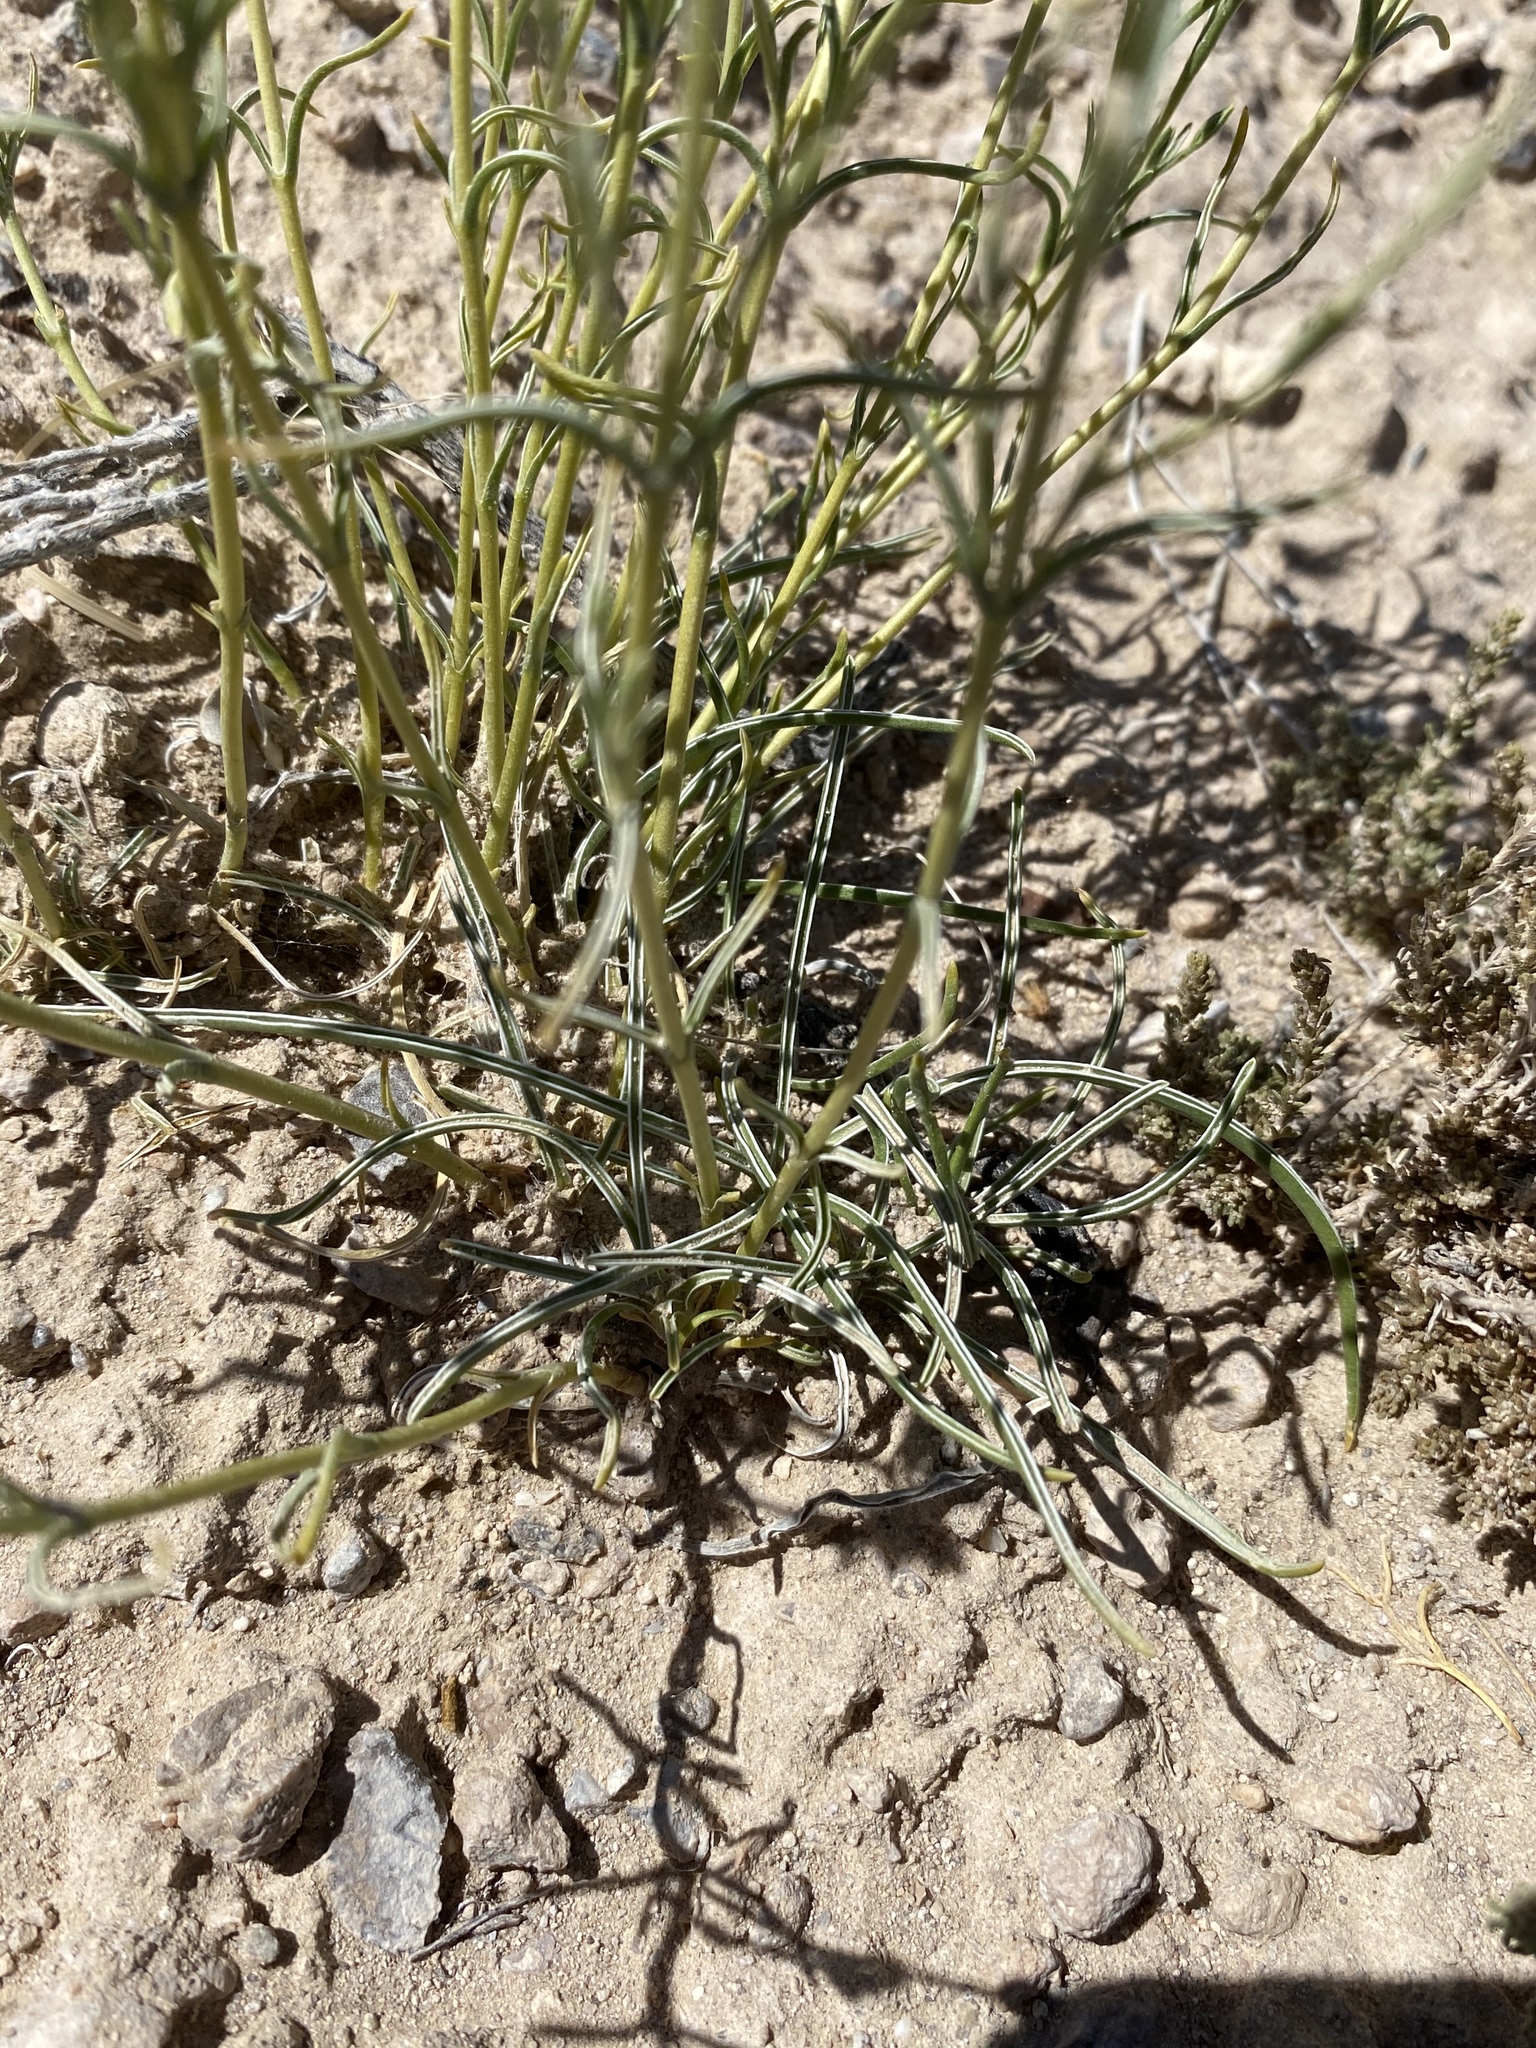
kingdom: Plantae
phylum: Tracheophyta
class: Magnoliopsida
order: Gentianales
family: Gentianaceae
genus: Frasera
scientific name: Frasera gypsicola
